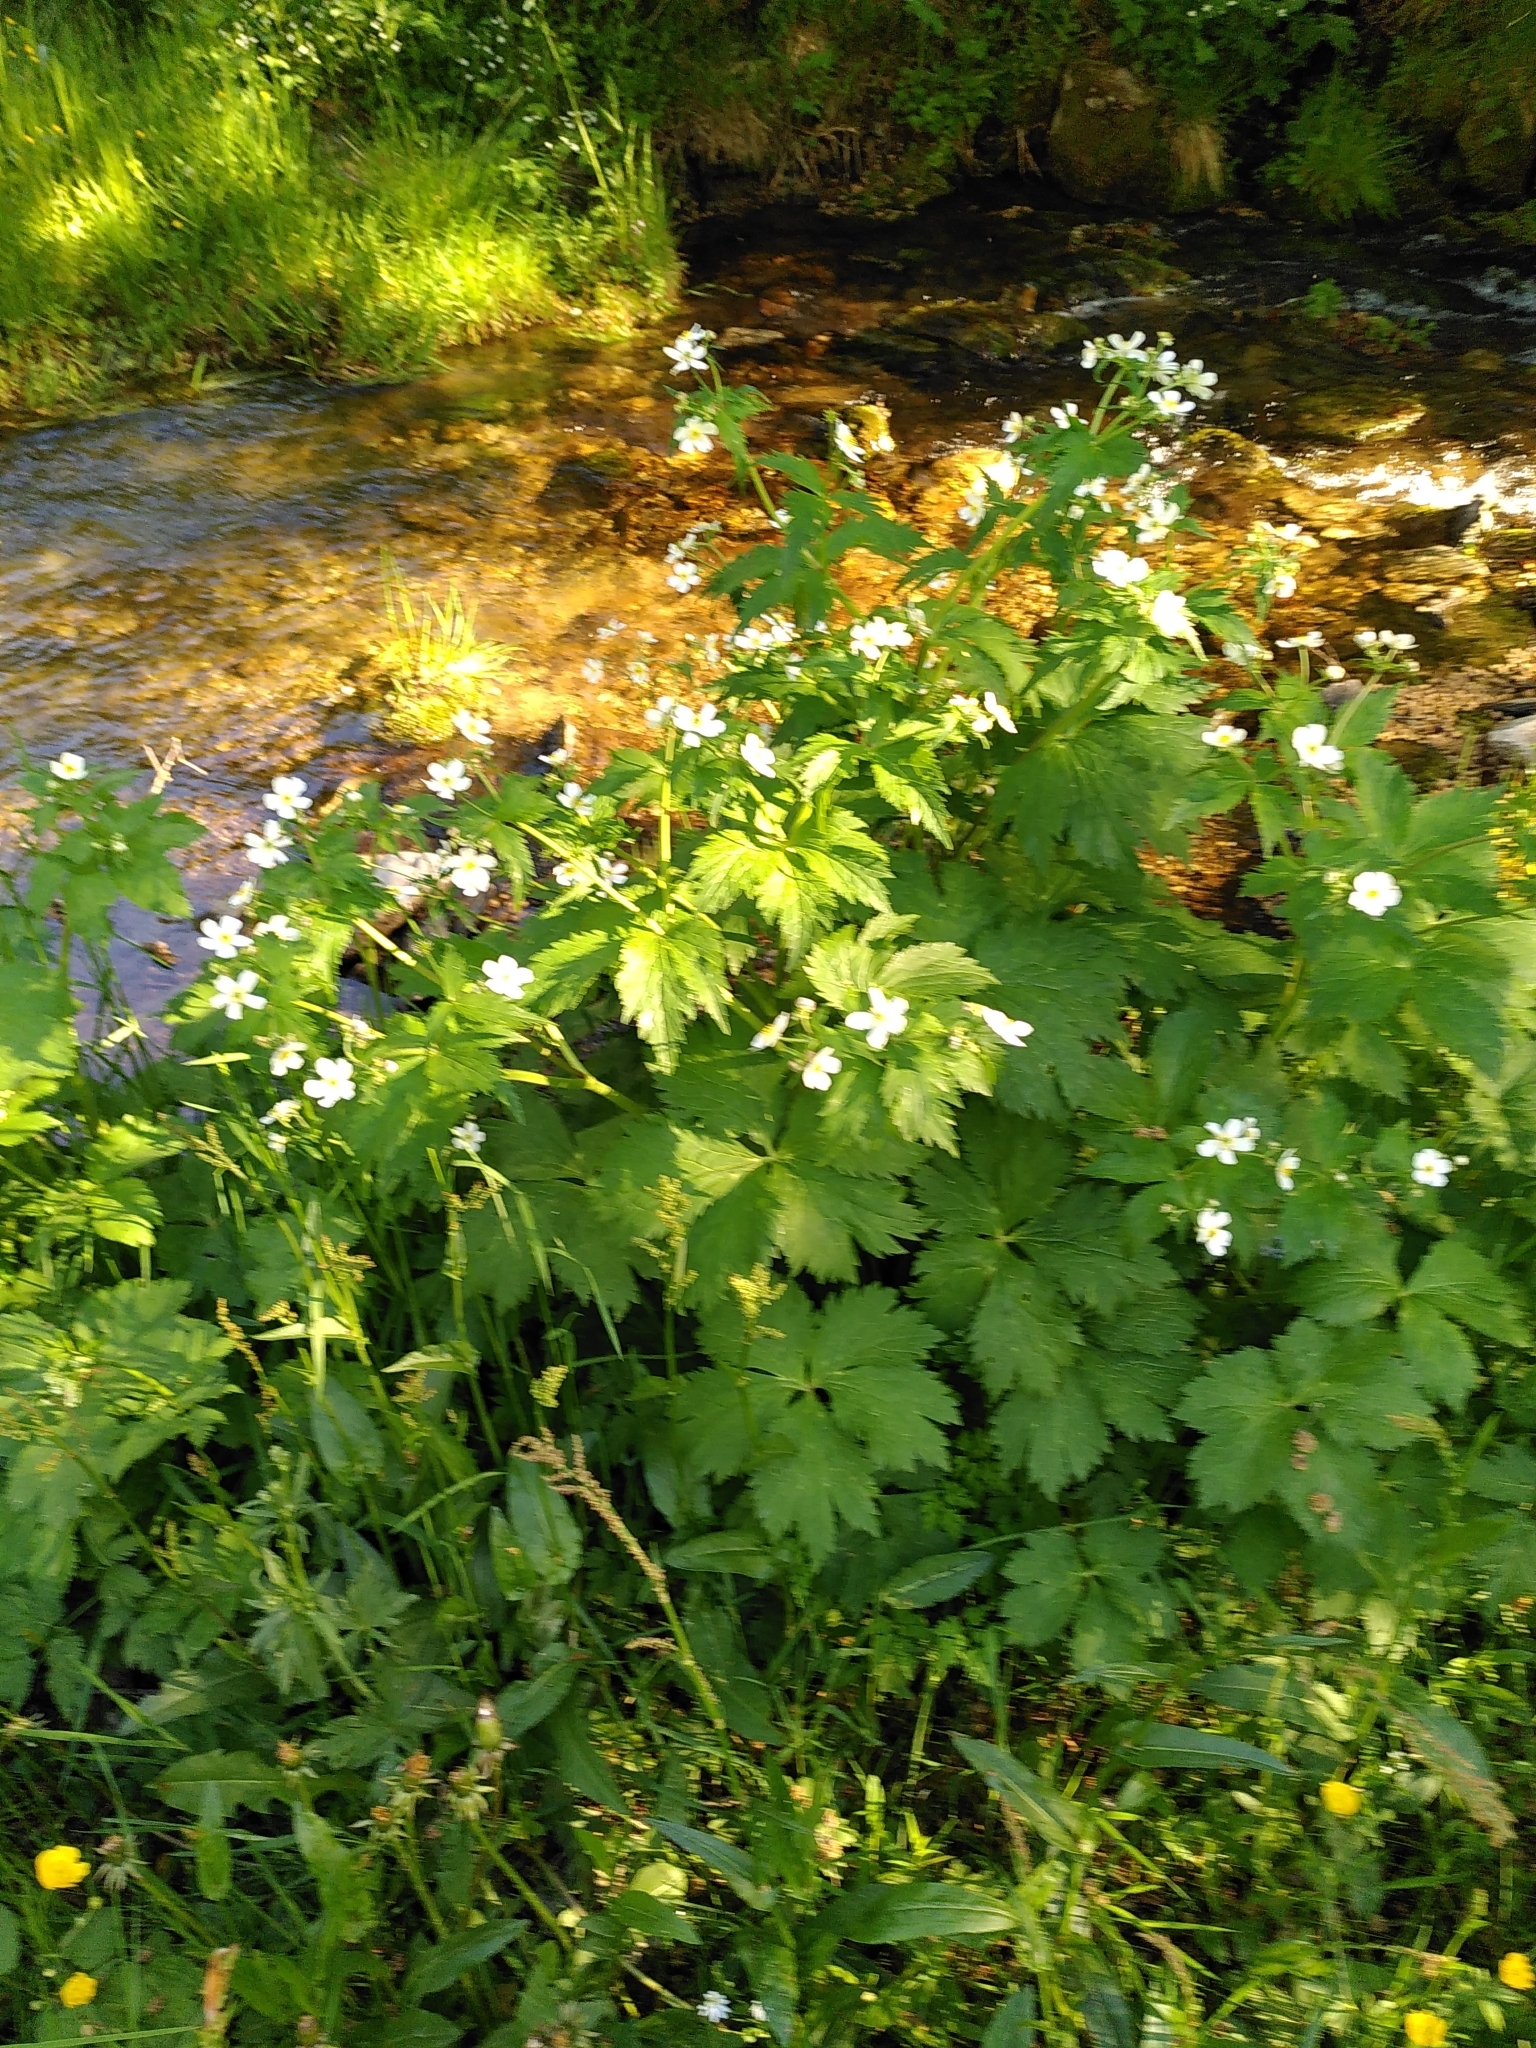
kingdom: Plantae
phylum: Tracheophyta
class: Magnoliopsida
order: Ranunculales
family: Ranunculaceae
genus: Ranunculus
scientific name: Ranunculus aconitifolius
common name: Aconite-leaved buttercup
